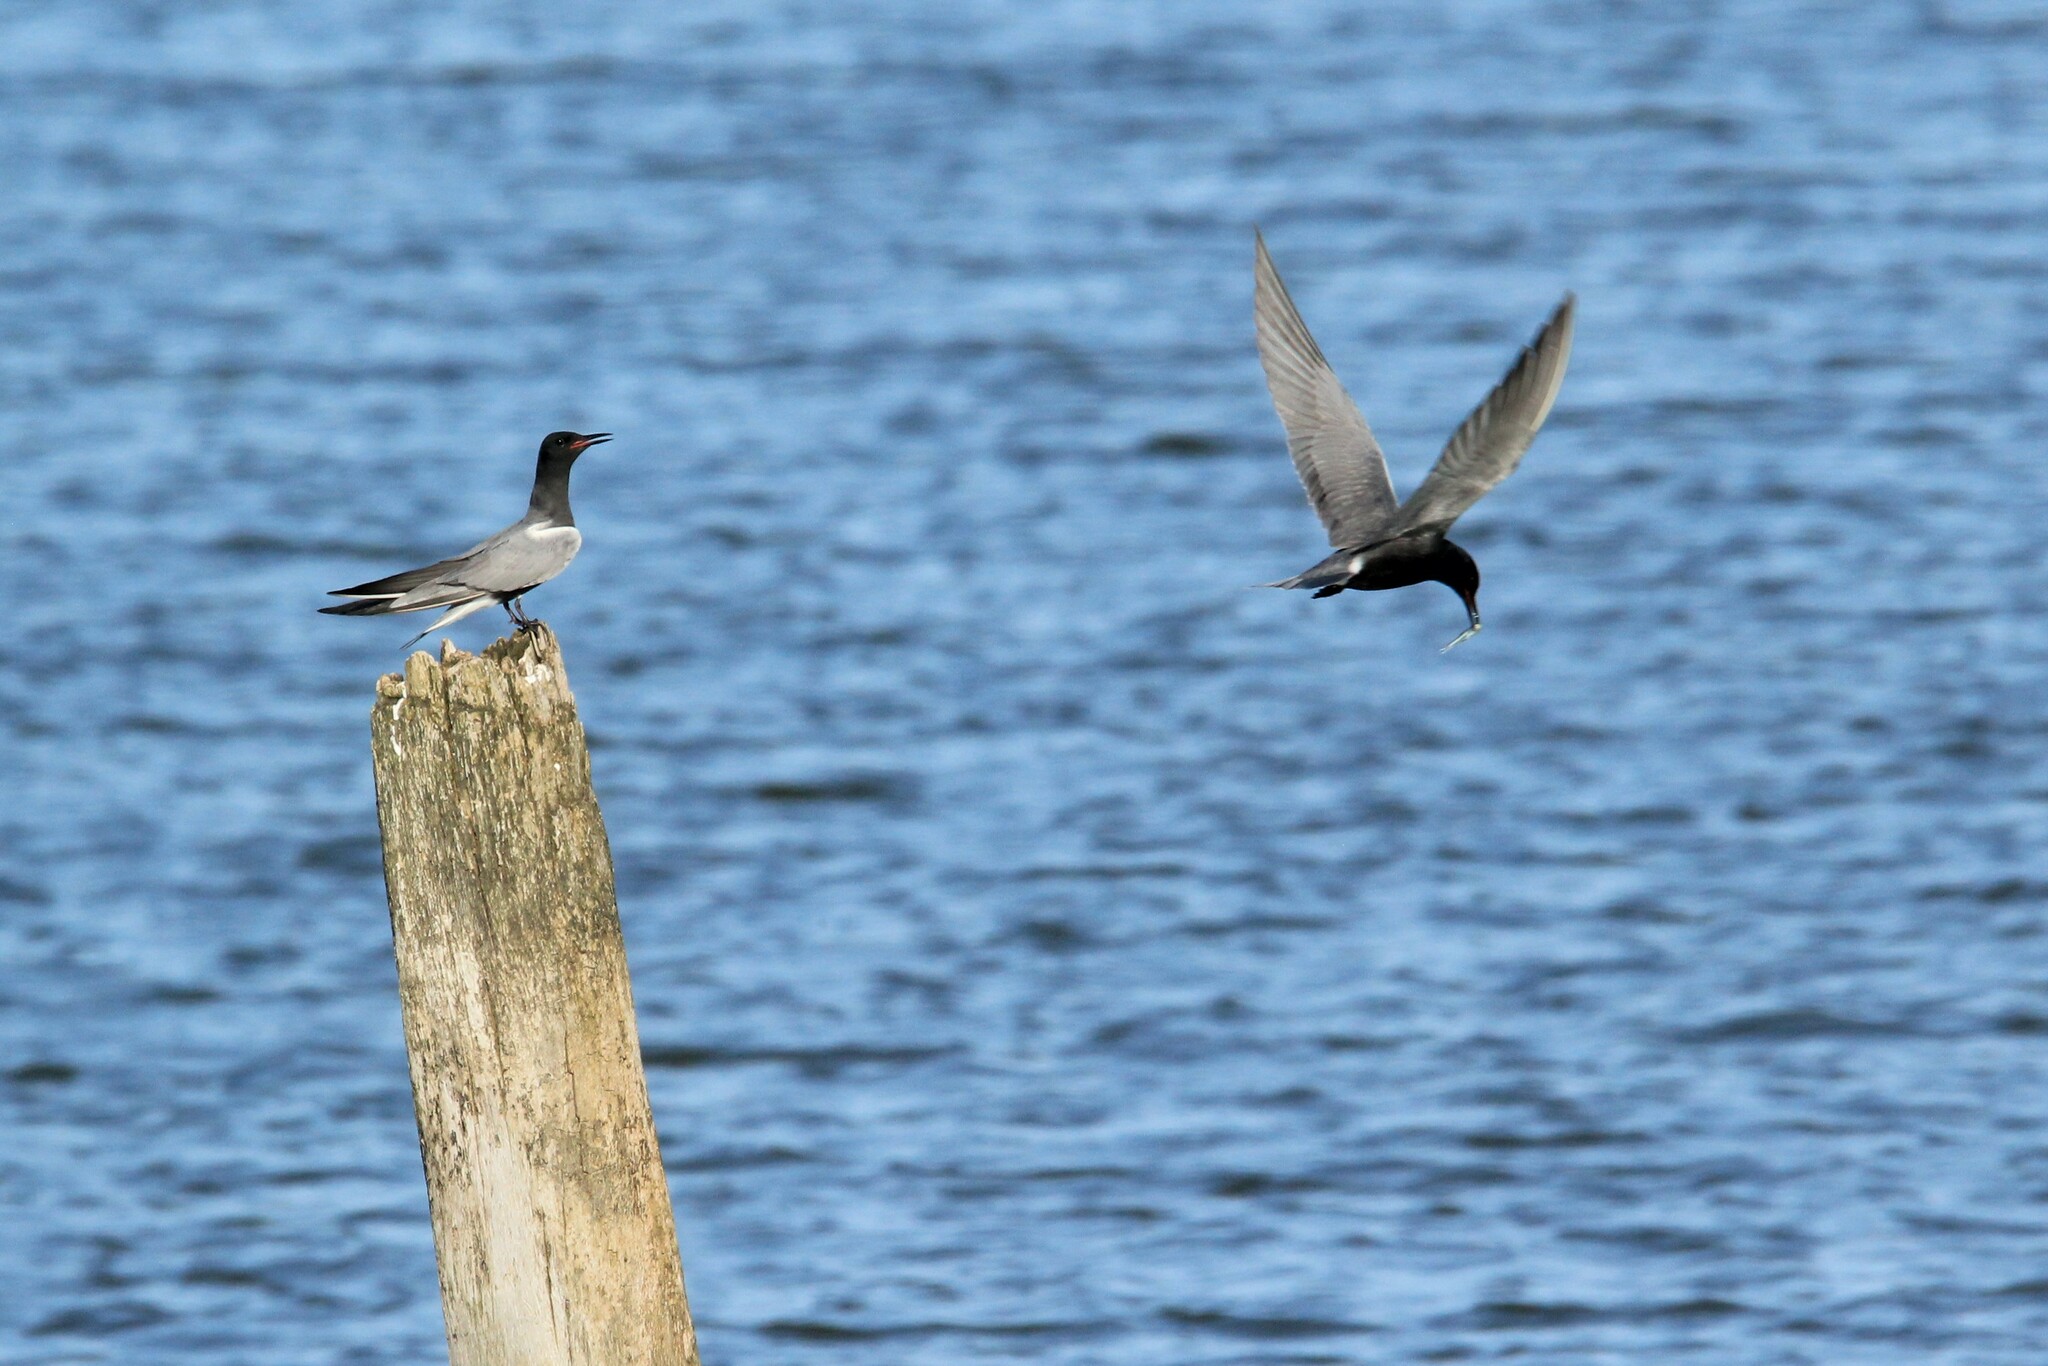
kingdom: Animalia
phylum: Chordata
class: Aves
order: Charadriiformes
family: Laridae
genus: Chlidonias
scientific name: Chlidonias niger
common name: Black tern
